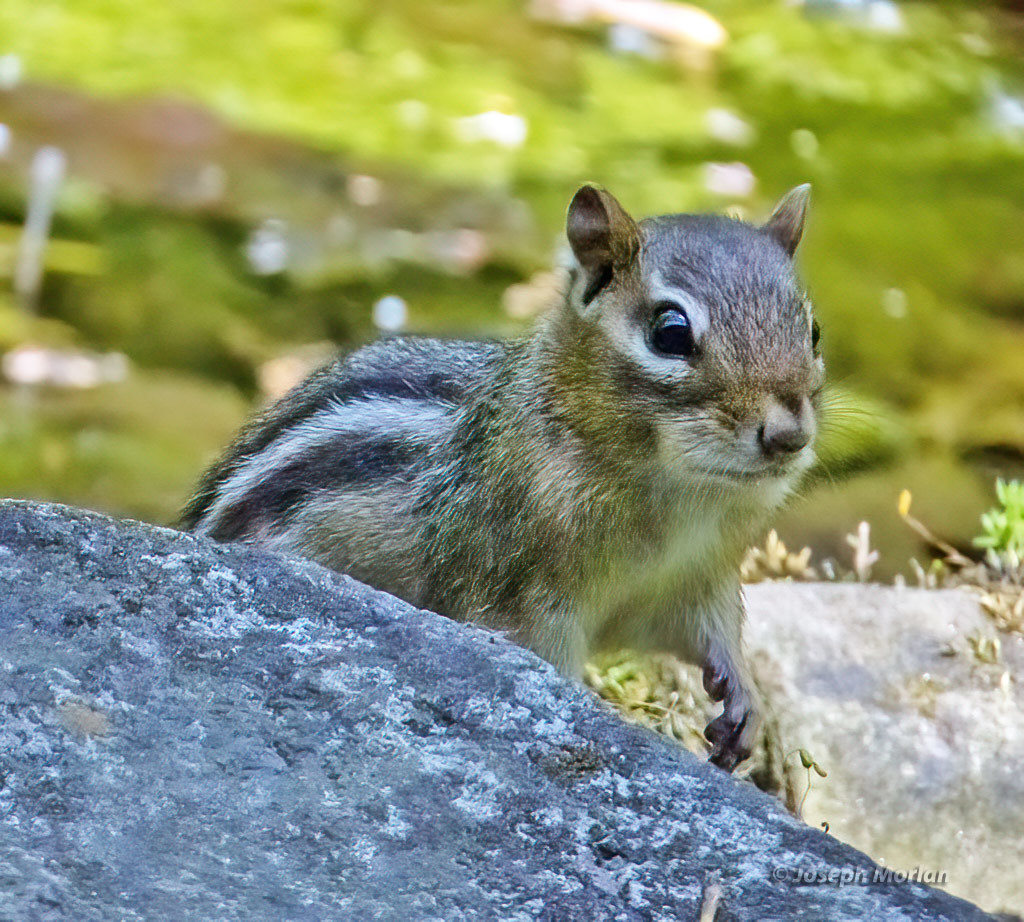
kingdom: Animalia
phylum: Chordata
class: Mammalia
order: Rodentia
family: Sciuridae
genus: Tamias
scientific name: Tamias striatus
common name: Eastern chipmunk
